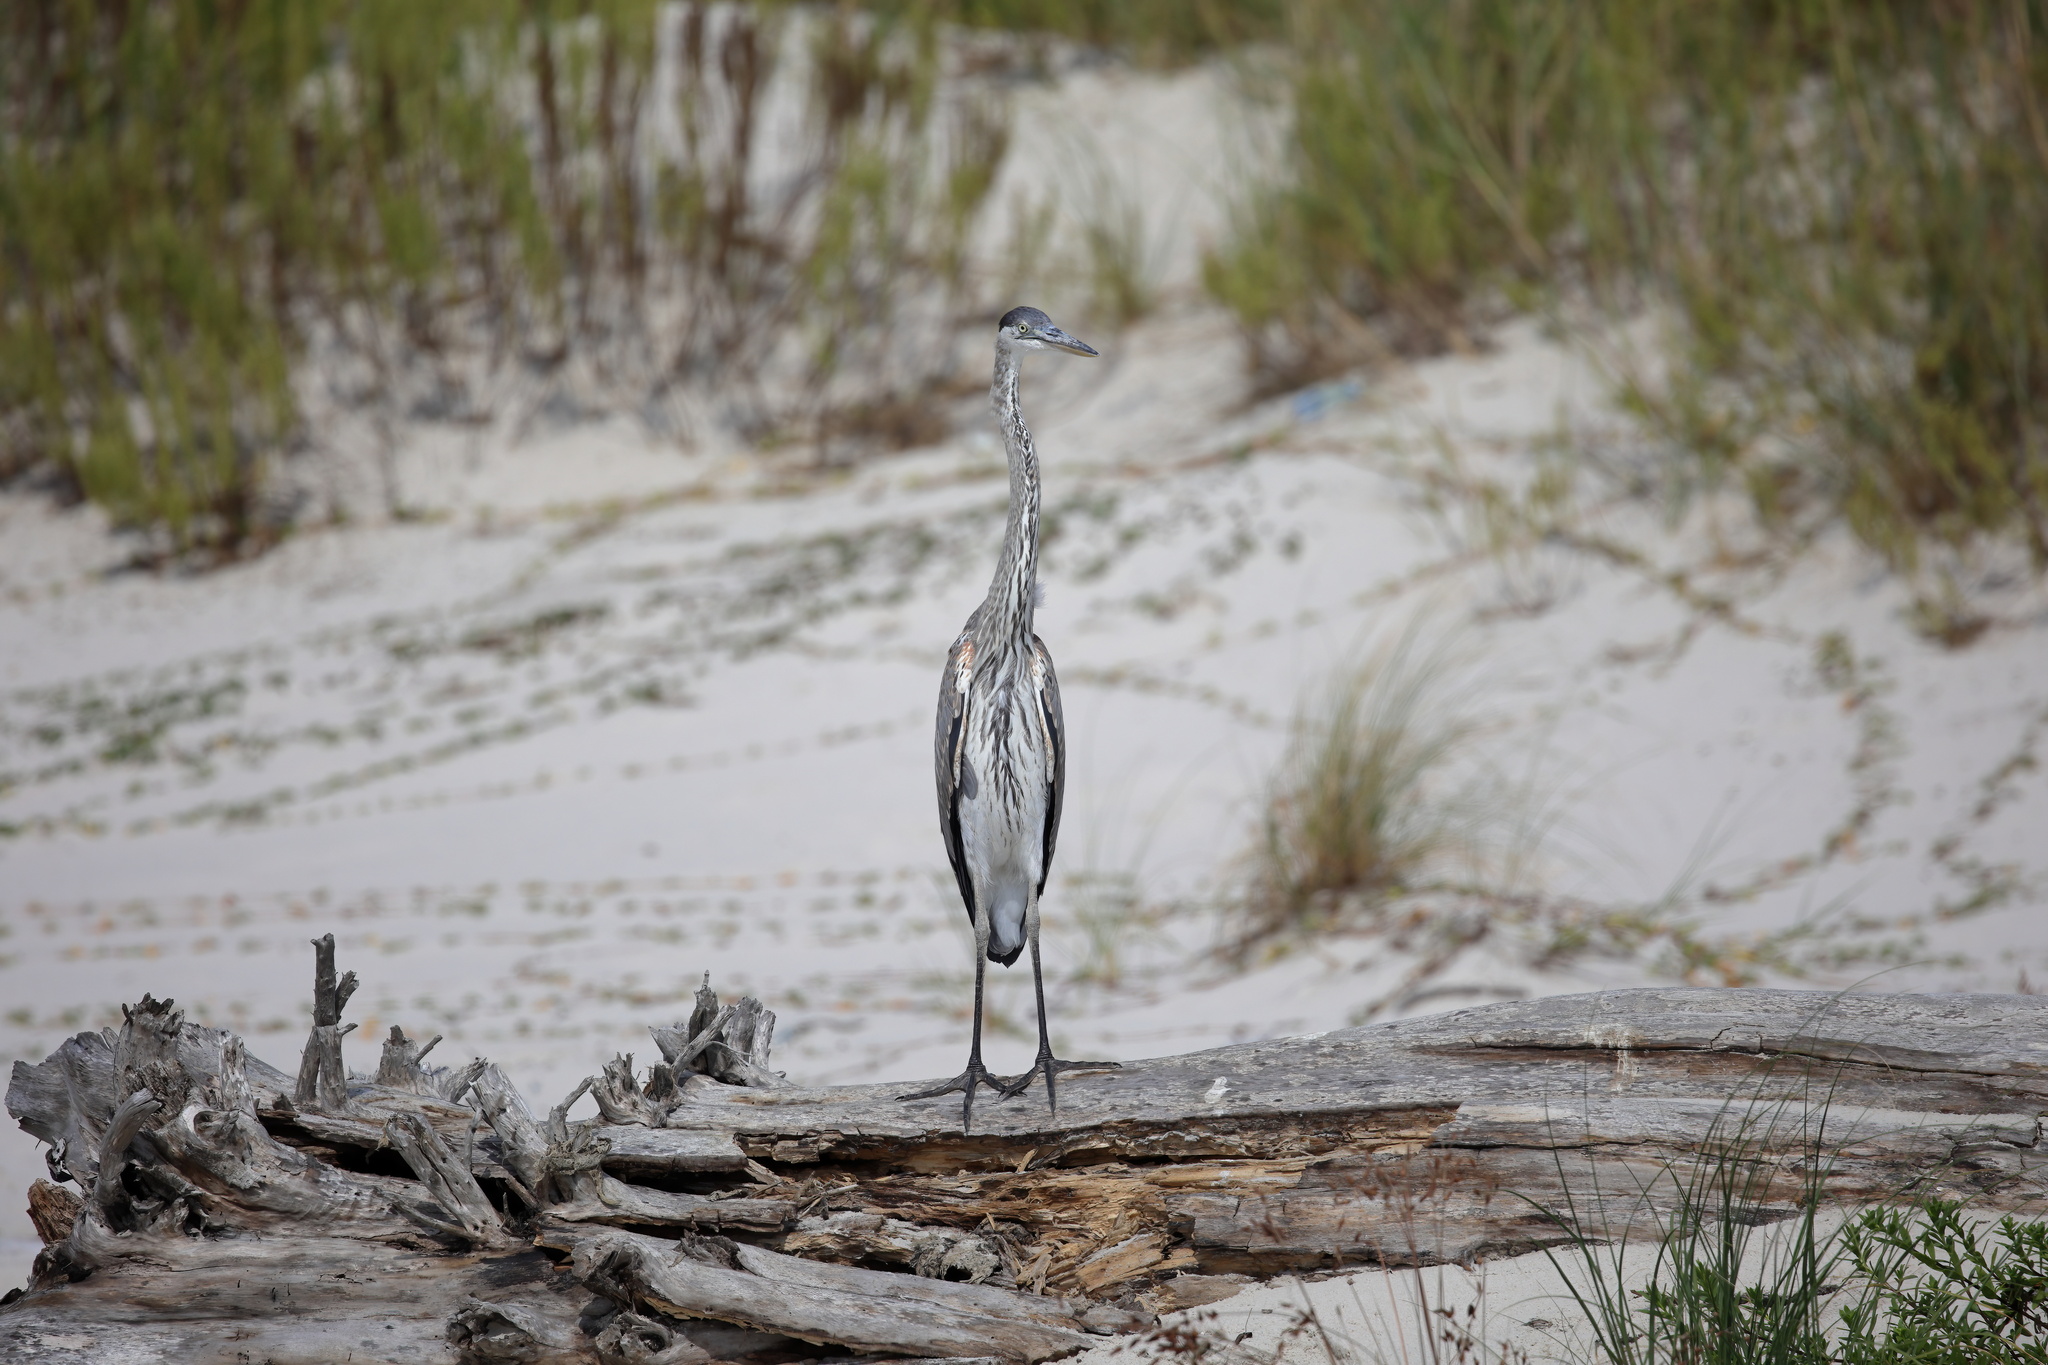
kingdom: Animalia
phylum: Chordata
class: Aves
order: Pelecaniformes
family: Ardeidae
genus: Ardea
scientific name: Ardea herodias
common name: Great blue heron
